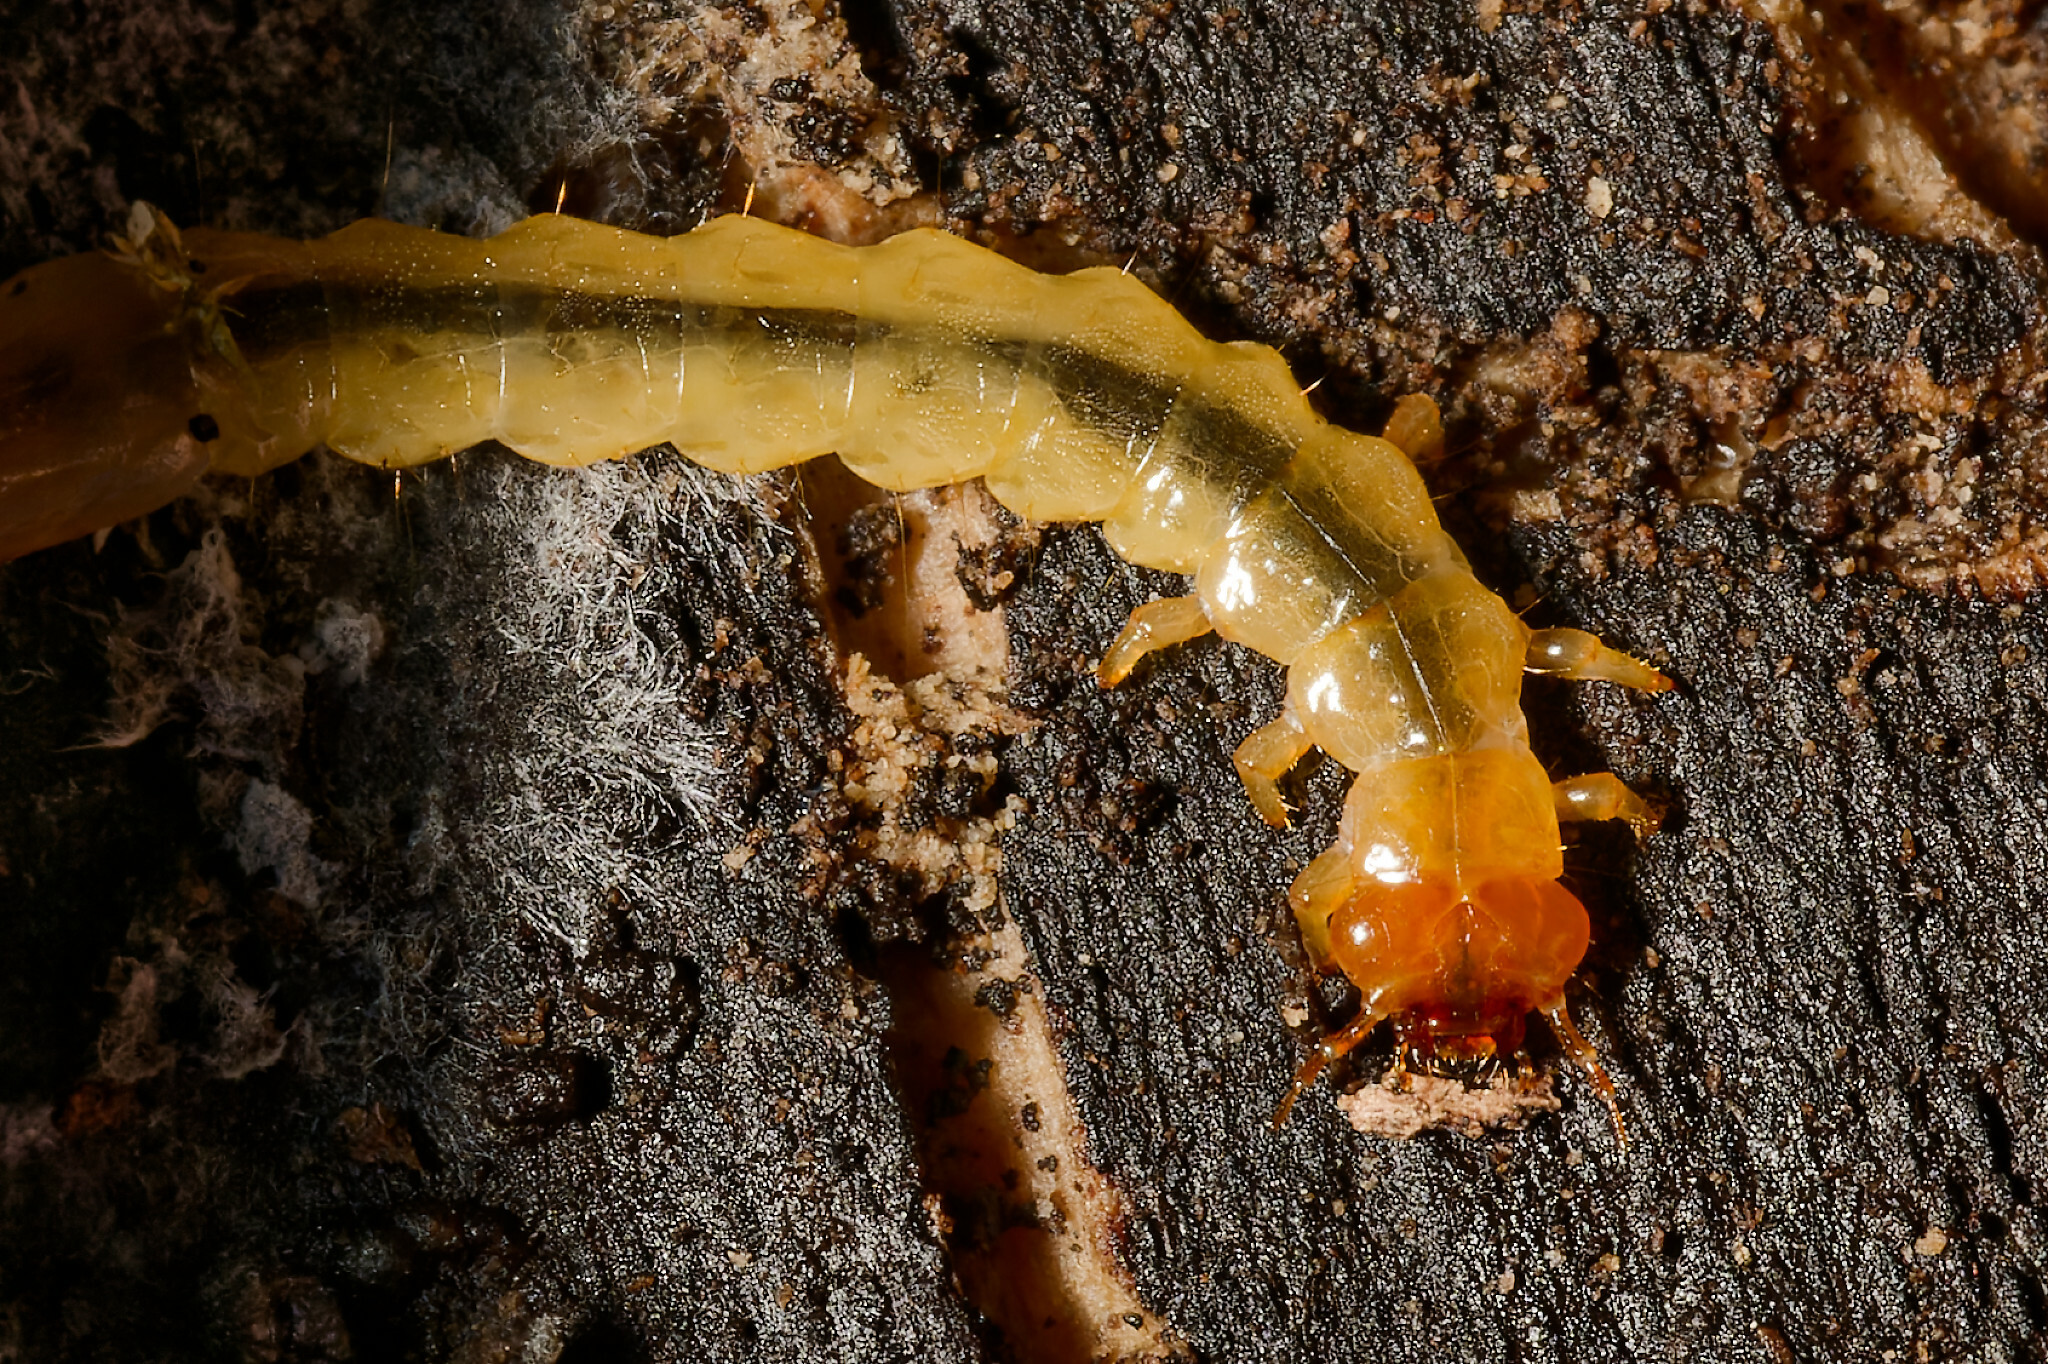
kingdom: Animalia
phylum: Arthropoda
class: Insecta
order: Coleoptera
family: Pyrochroidae
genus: Dendroides
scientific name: Dendroides canadensis
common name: Canada fire-colored beetle
